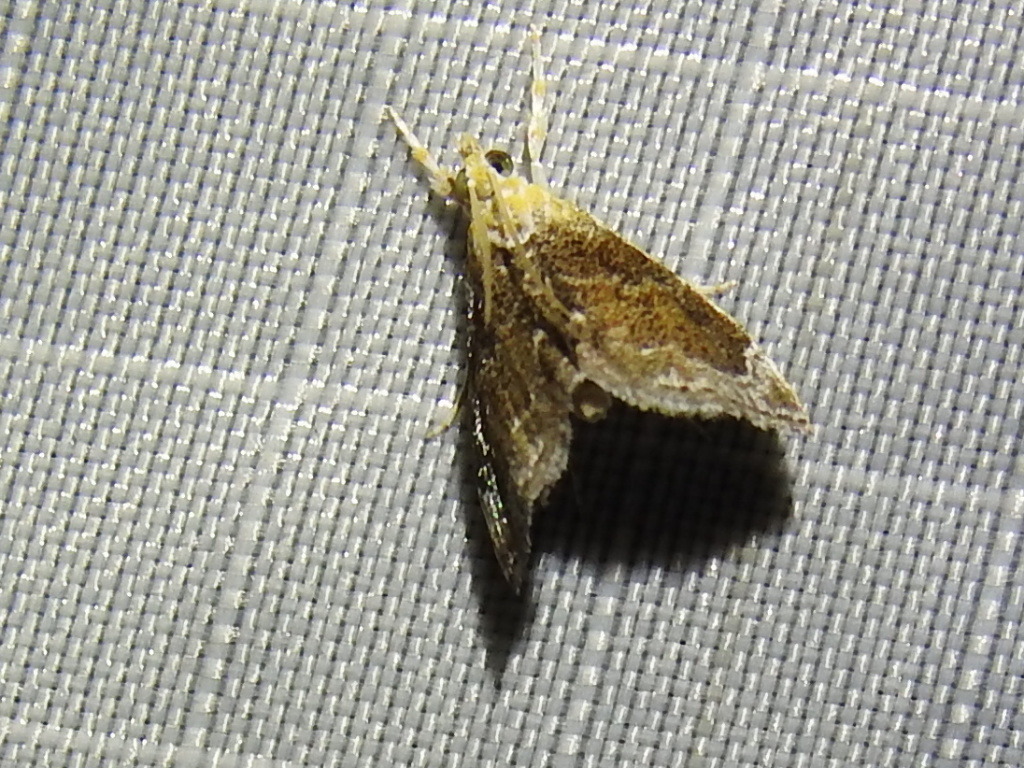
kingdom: Animalia
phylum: Arthropoda
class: Insecta
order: Lepidoptera
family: Crambidae
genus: Lipocosma
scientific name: Lipocosma polingi
